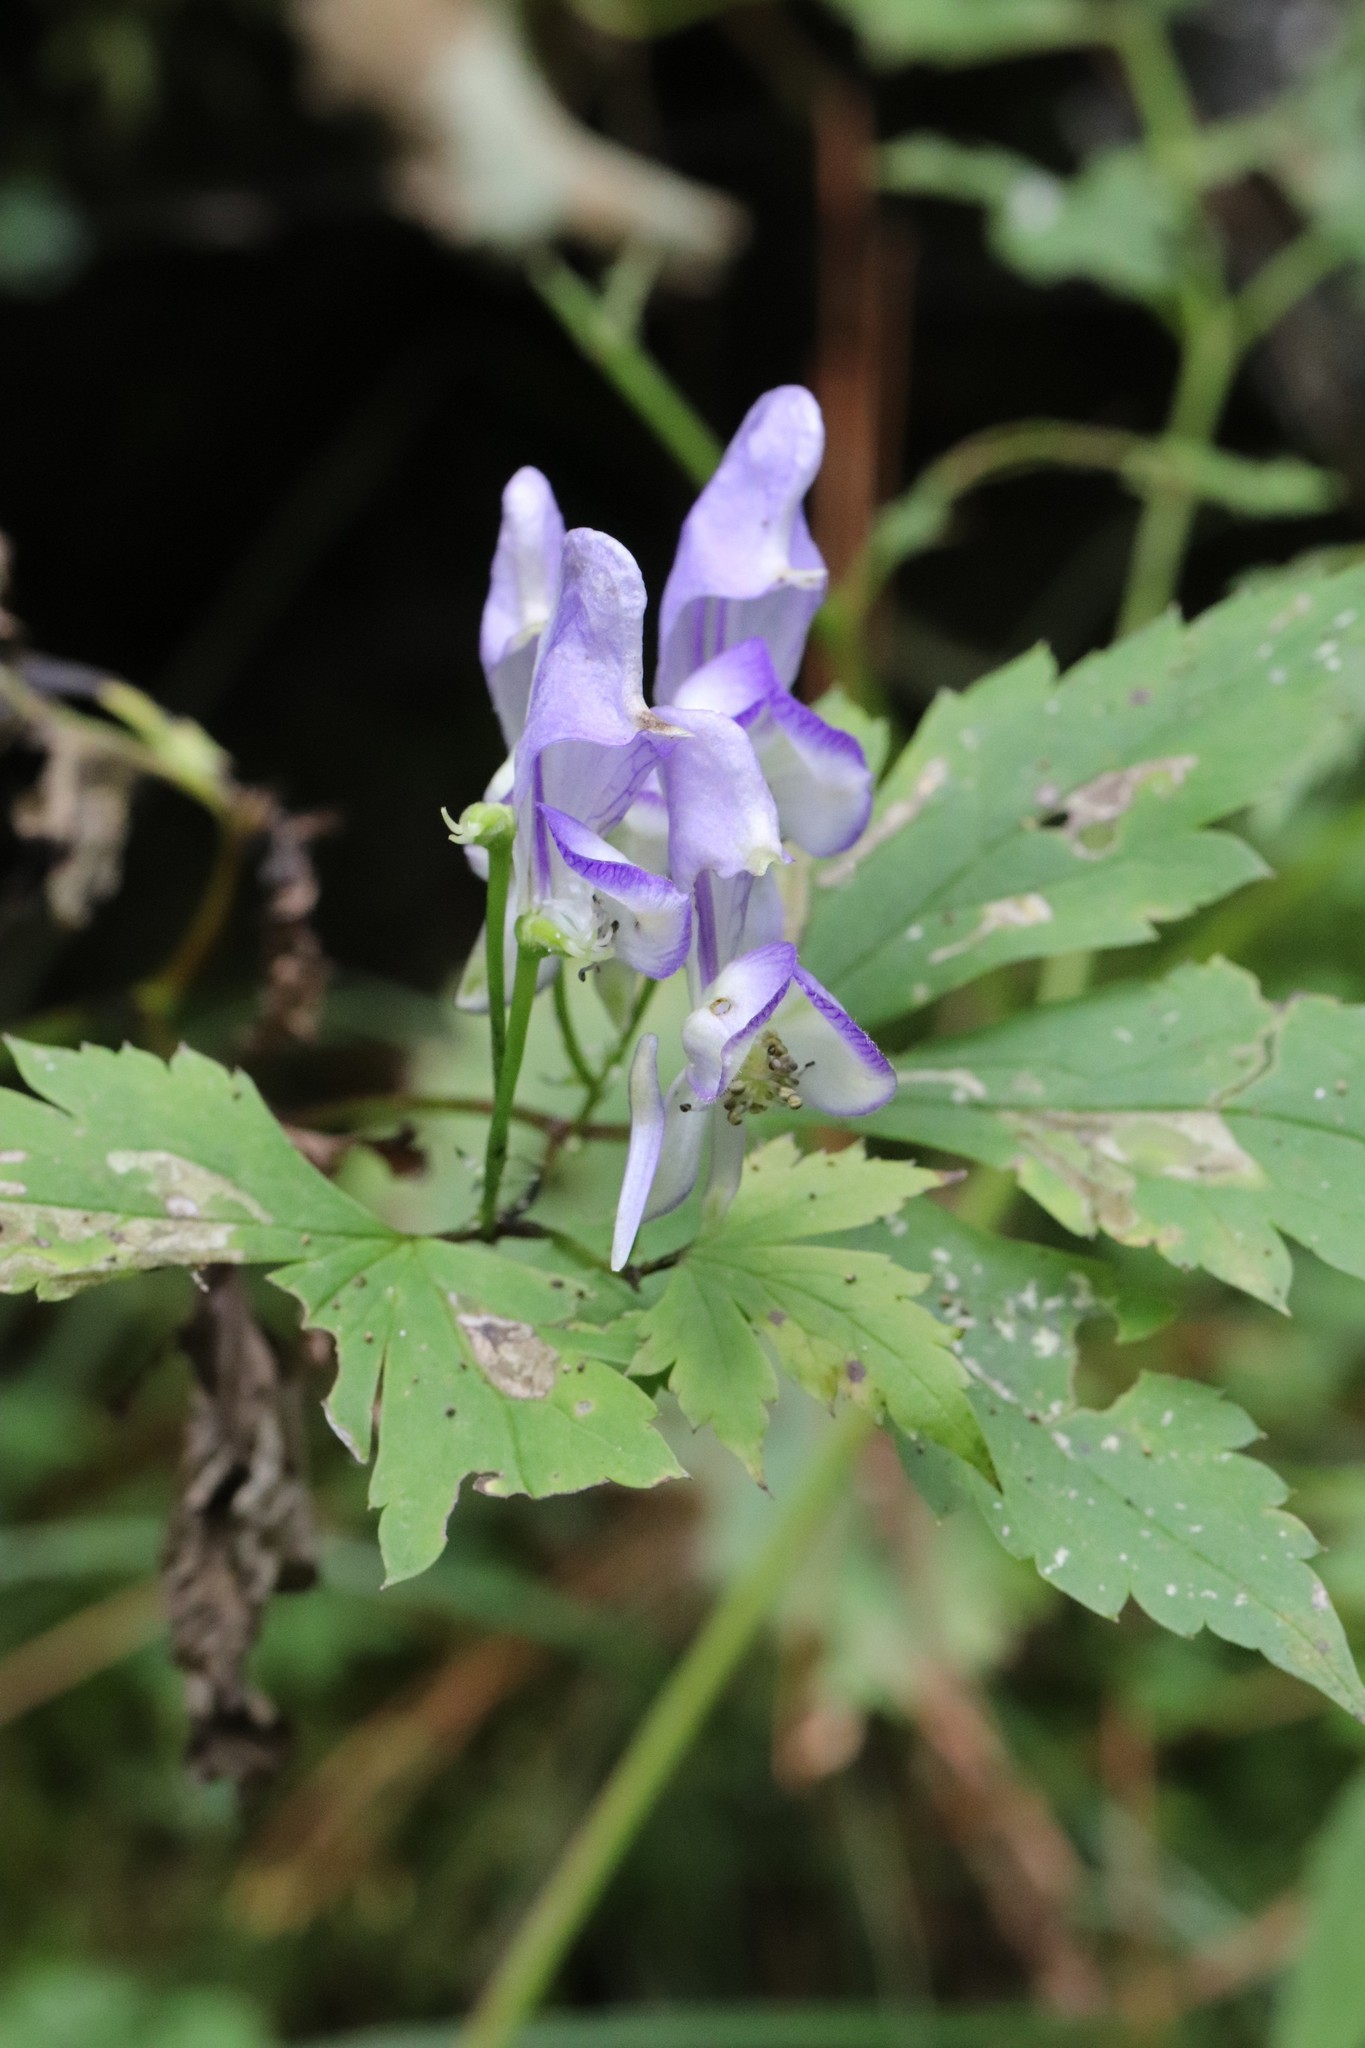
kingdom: Plantae
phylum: Tracheophyta
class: Magnoliopsida
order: Ranunculales
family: Ranunculaceae
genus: Aconitum
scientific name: Aconitum sczukinii
